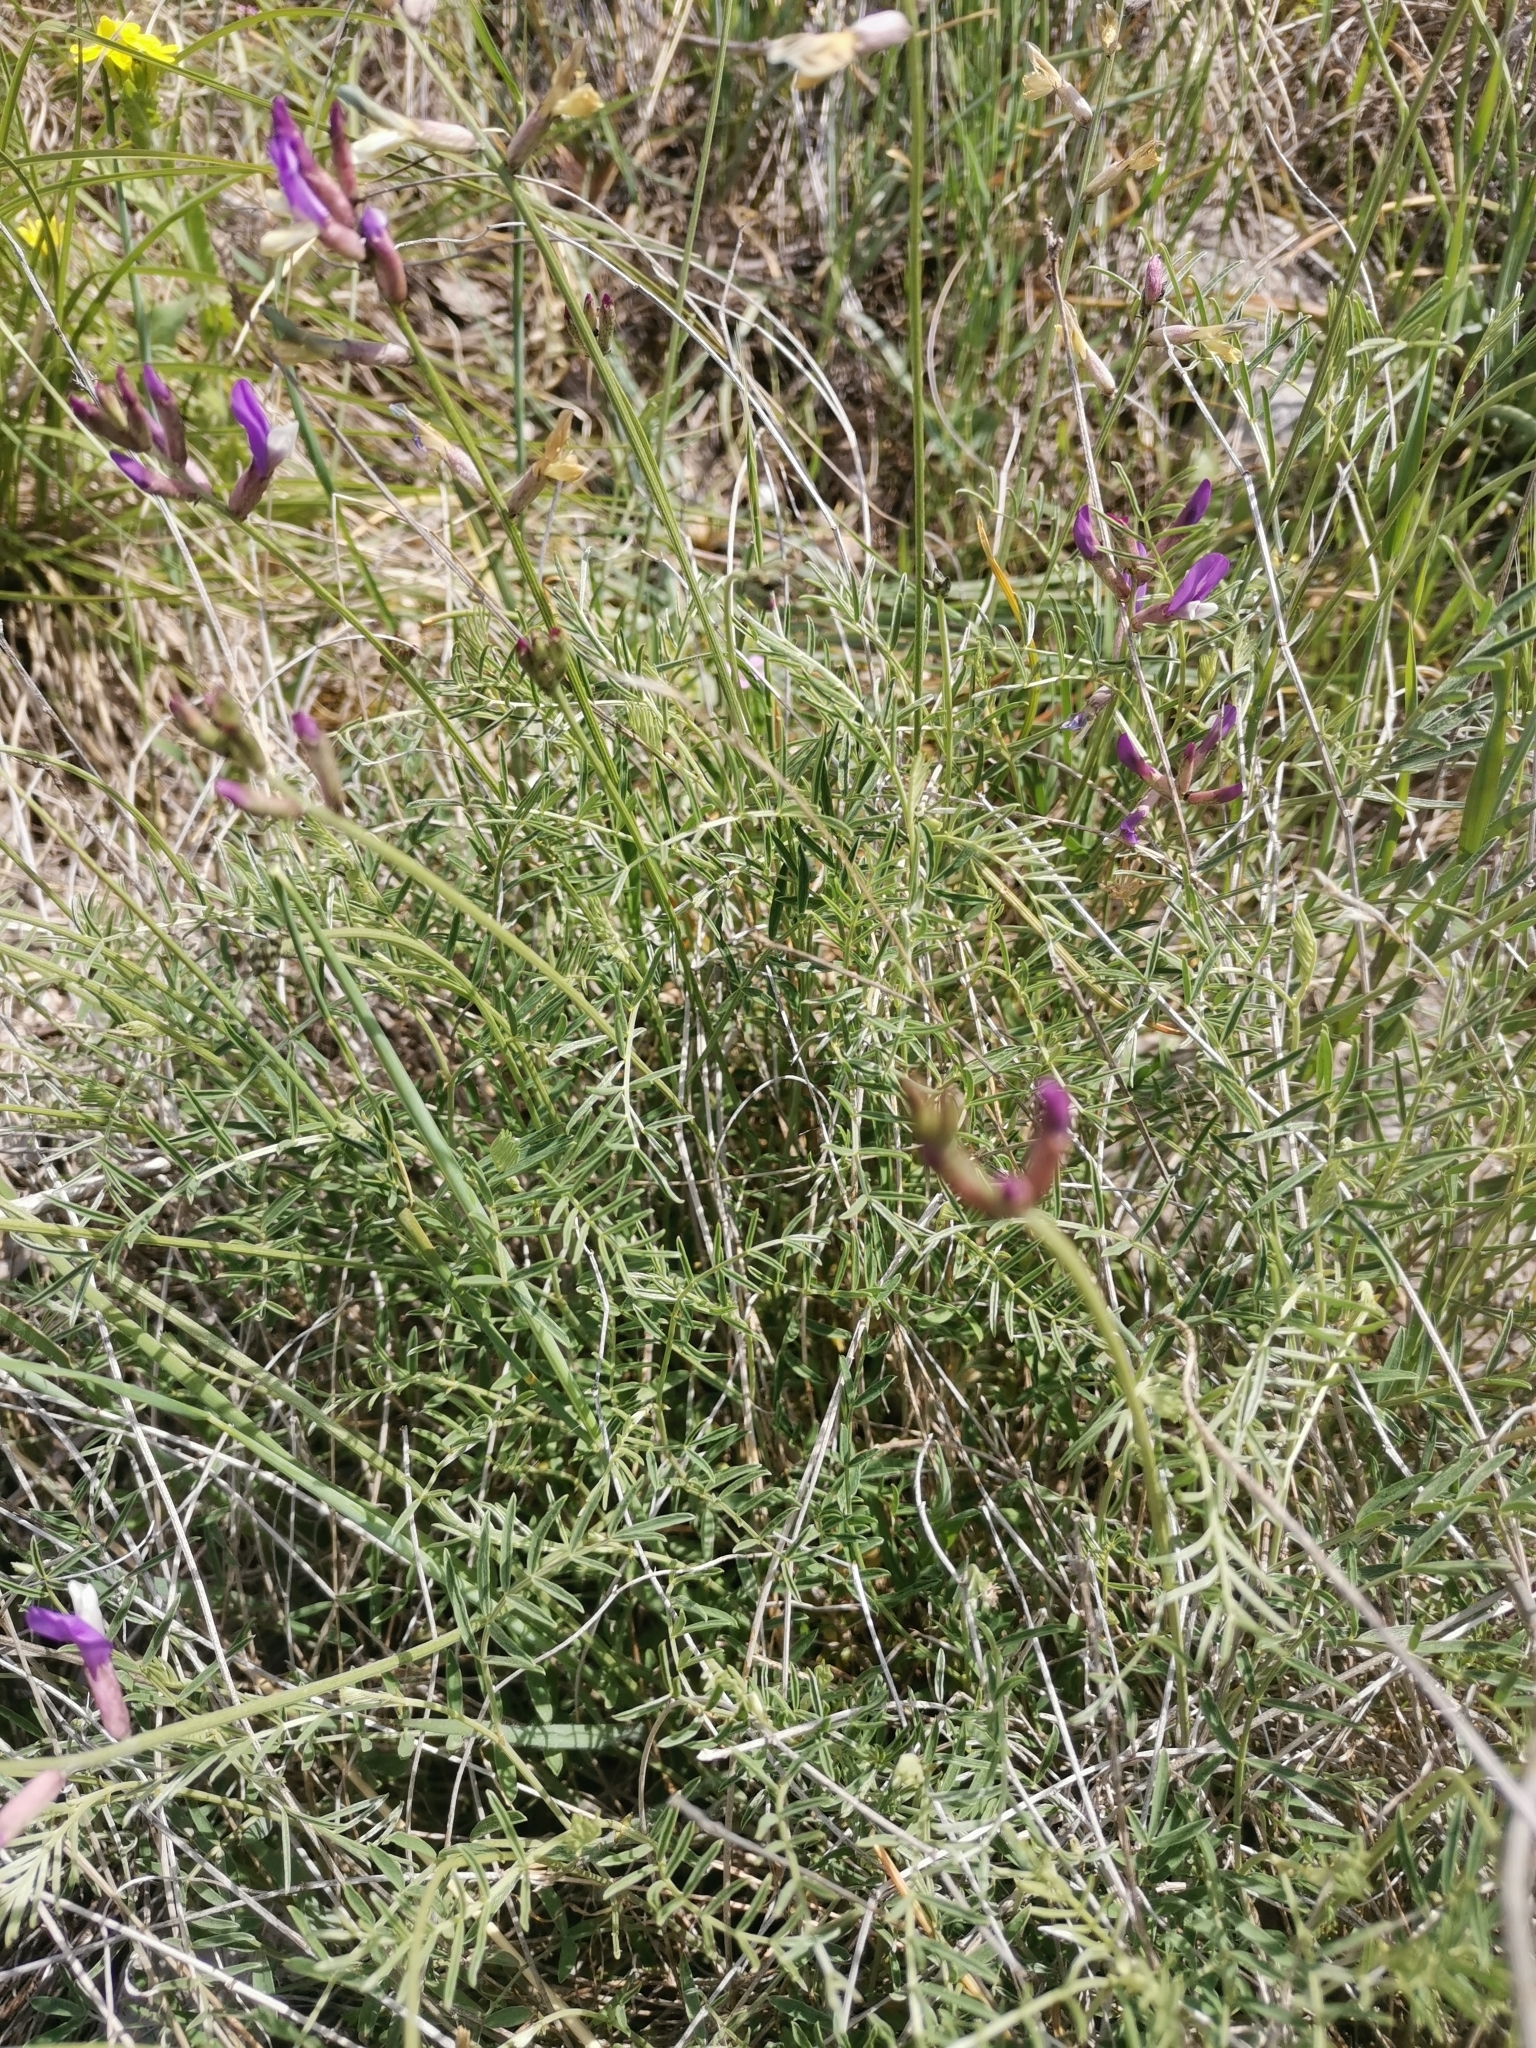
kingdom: Plantae
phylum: Tracheophyta
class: Magnoliopsida
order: Fabales
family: Fabaceae
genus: Astragalus
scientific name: Astragalus muelleri
